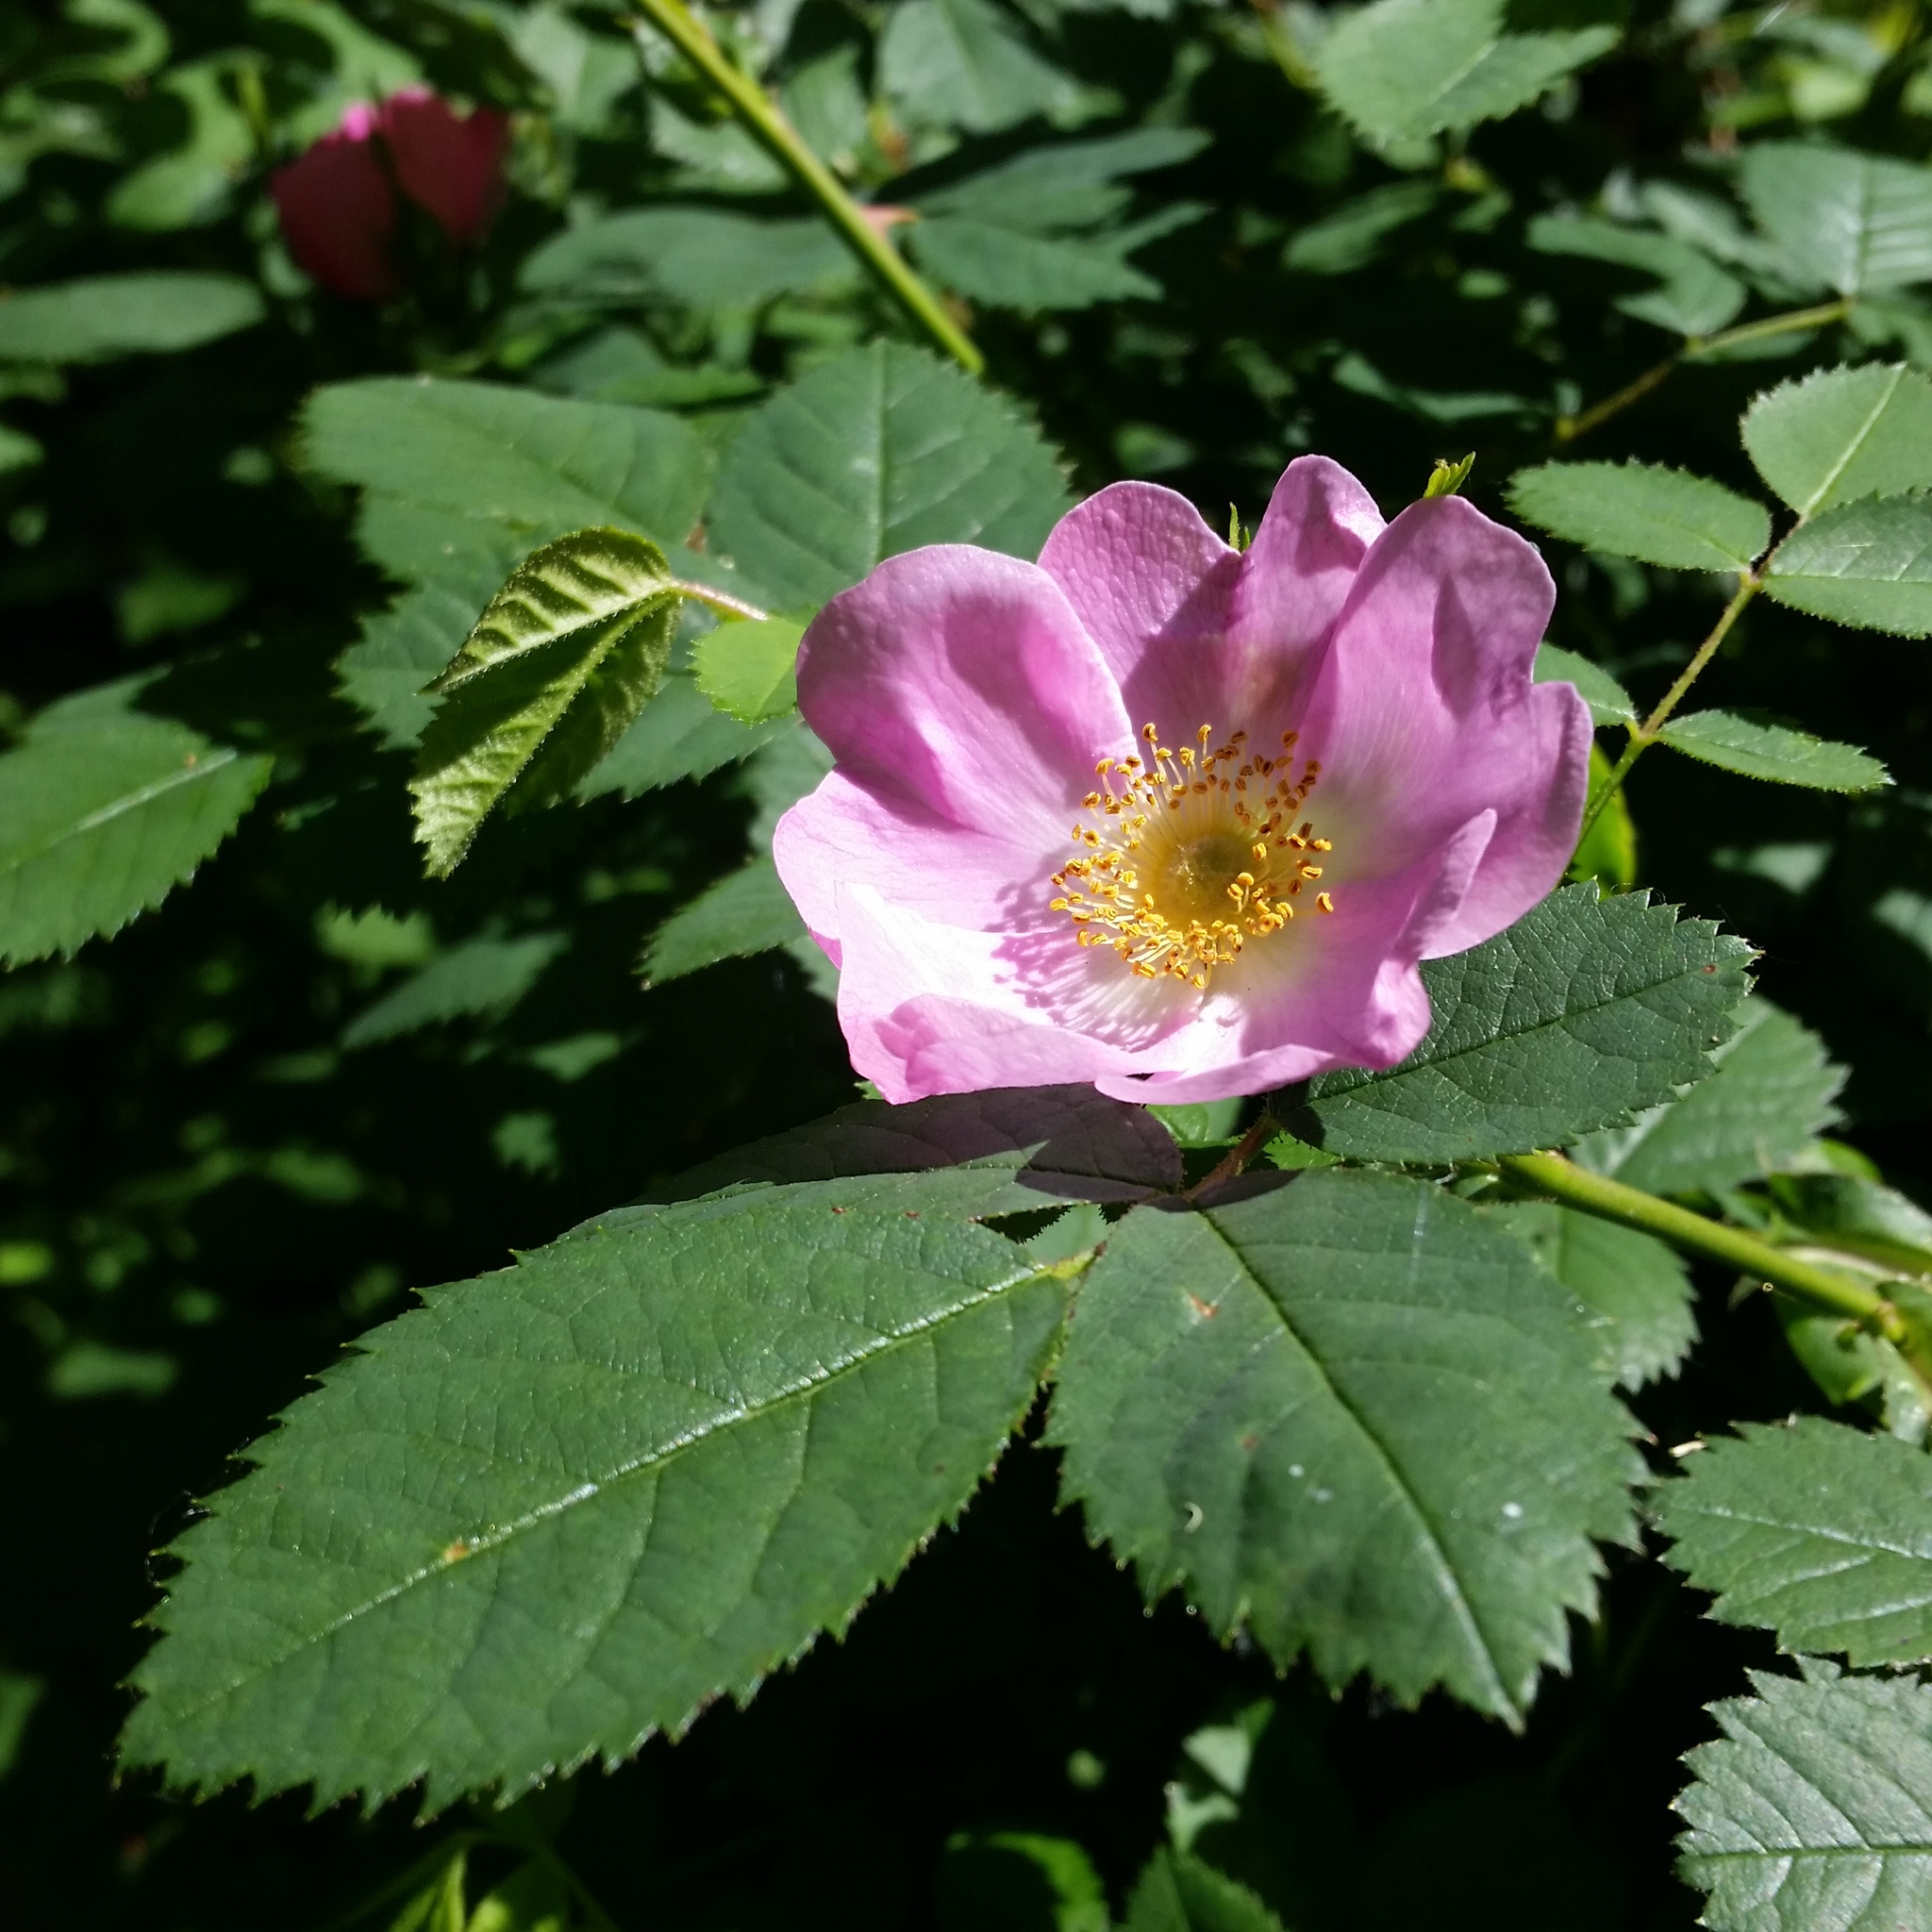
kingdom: Plantae
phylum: Tracheophyta
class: Magnoliopsida
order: Rosales
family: Rosaceae
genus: Rosa
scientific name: Rosa nutkana
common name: Nootka rose
